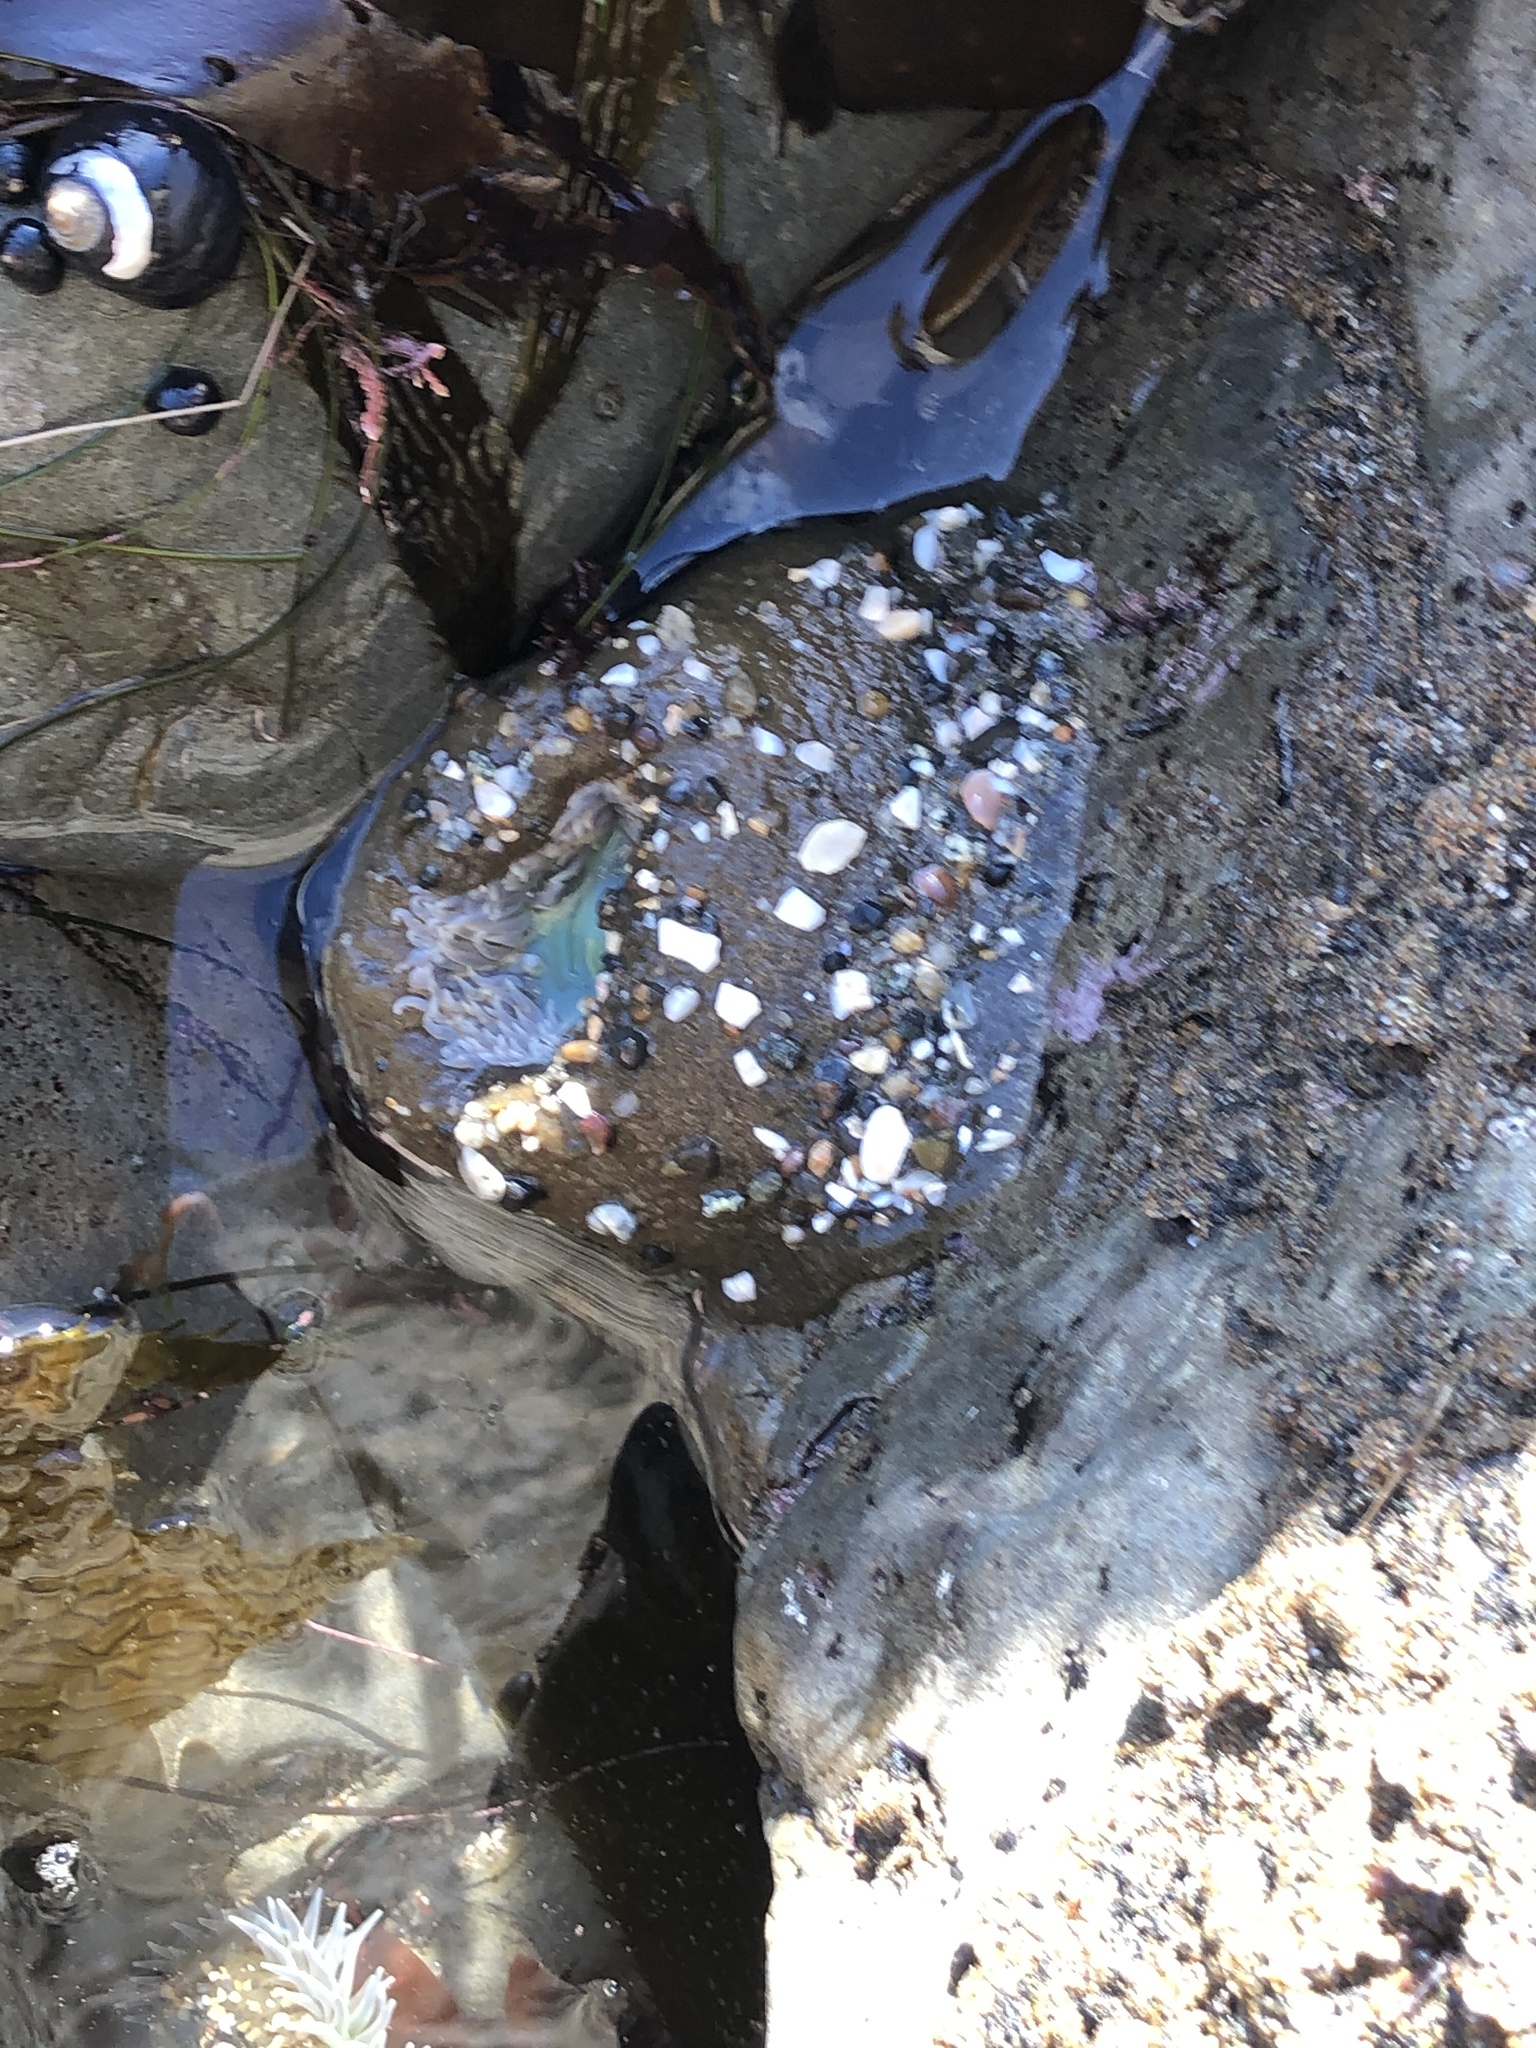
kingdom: Animalia
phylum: Cnidaria
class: Anthozoa
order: Actiniaria
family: Actiniidae
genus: Anthopleura
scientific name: Anthopleura xanthogrammica
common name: Giant green anemone
